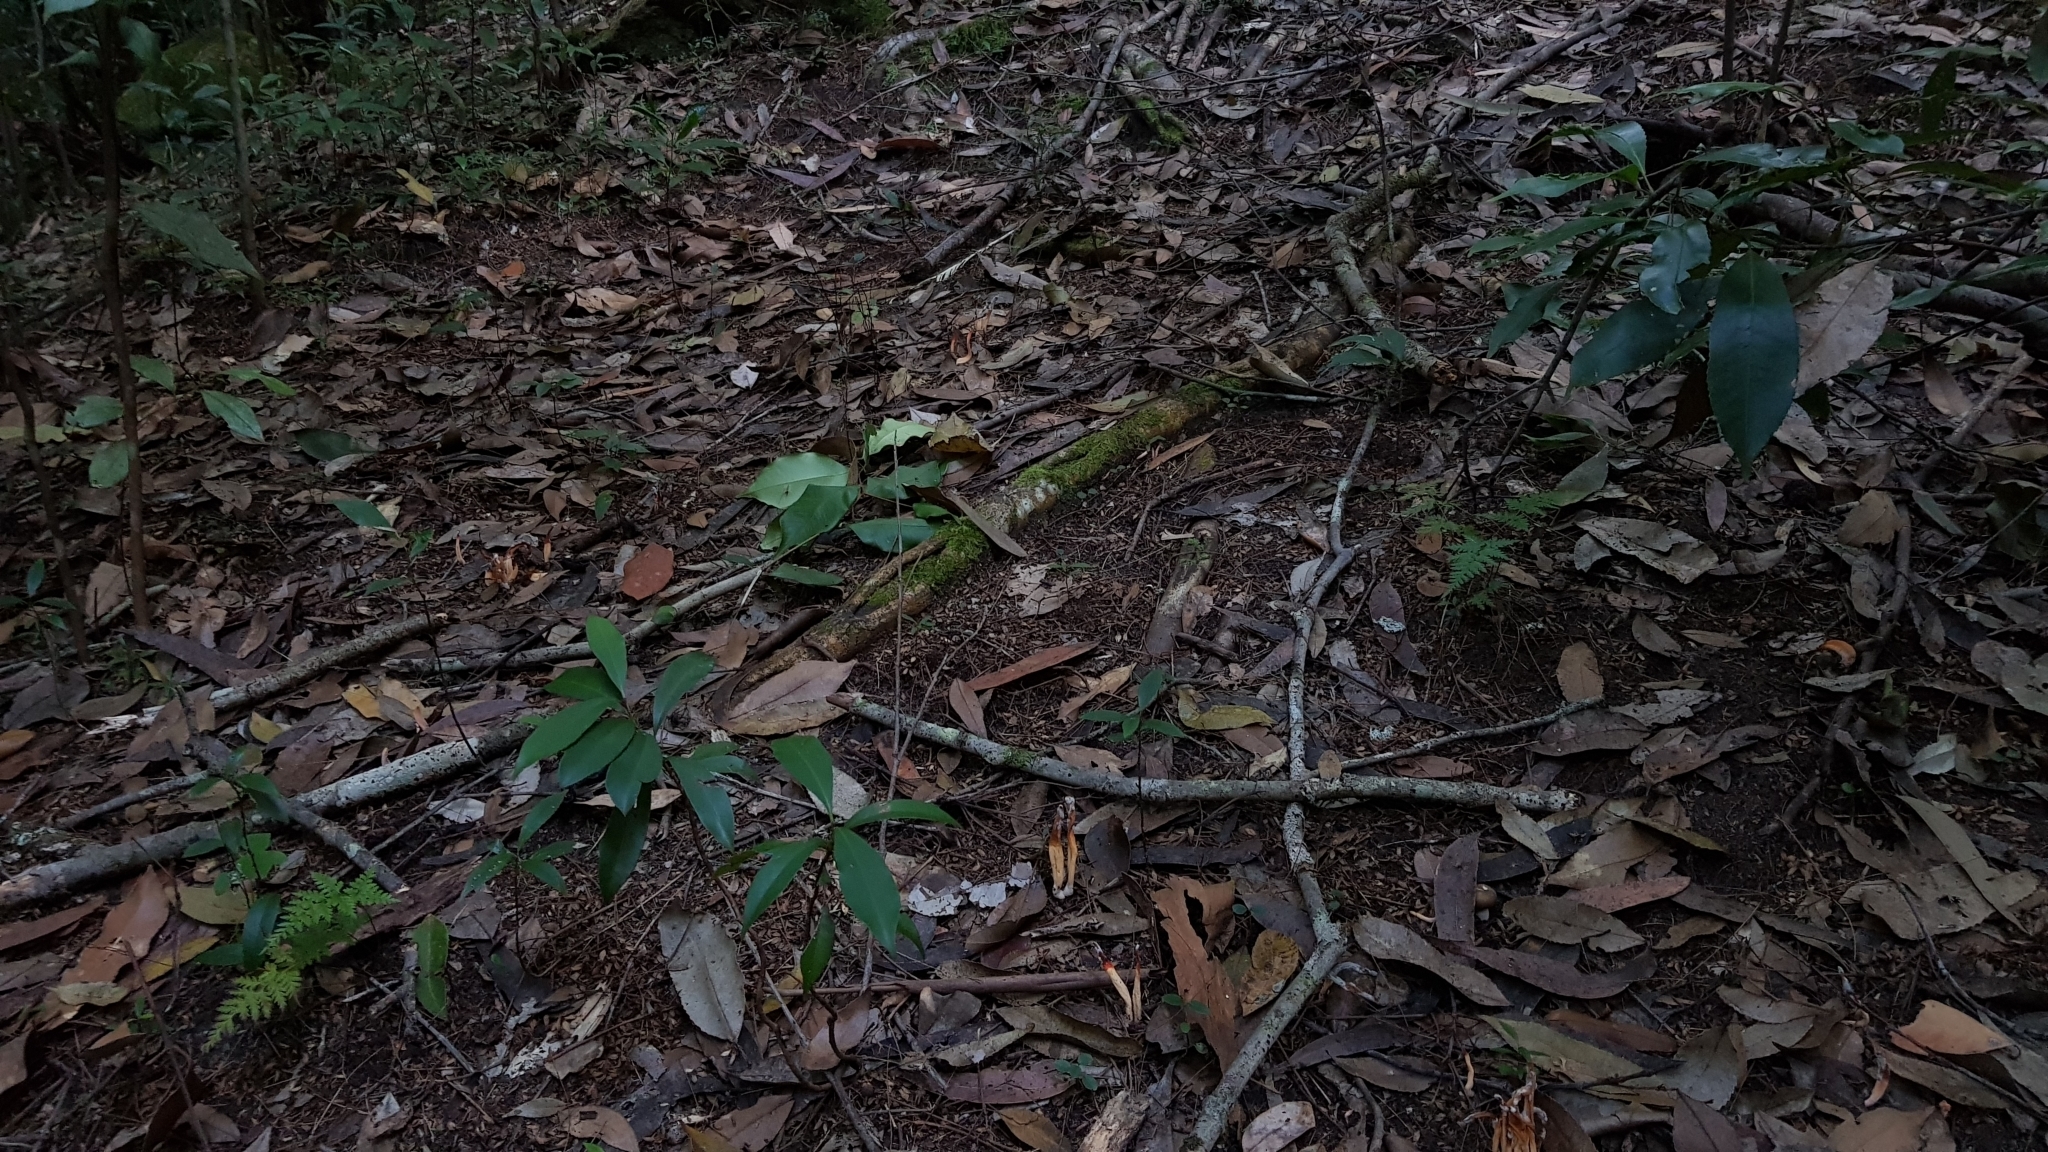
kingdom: Fungi
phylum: Basidiomycota
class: Agaricomycetes
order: Agaricales
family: Clavariaceae
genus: Clavulinopsis
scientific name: Clavulinopsis sulcata
